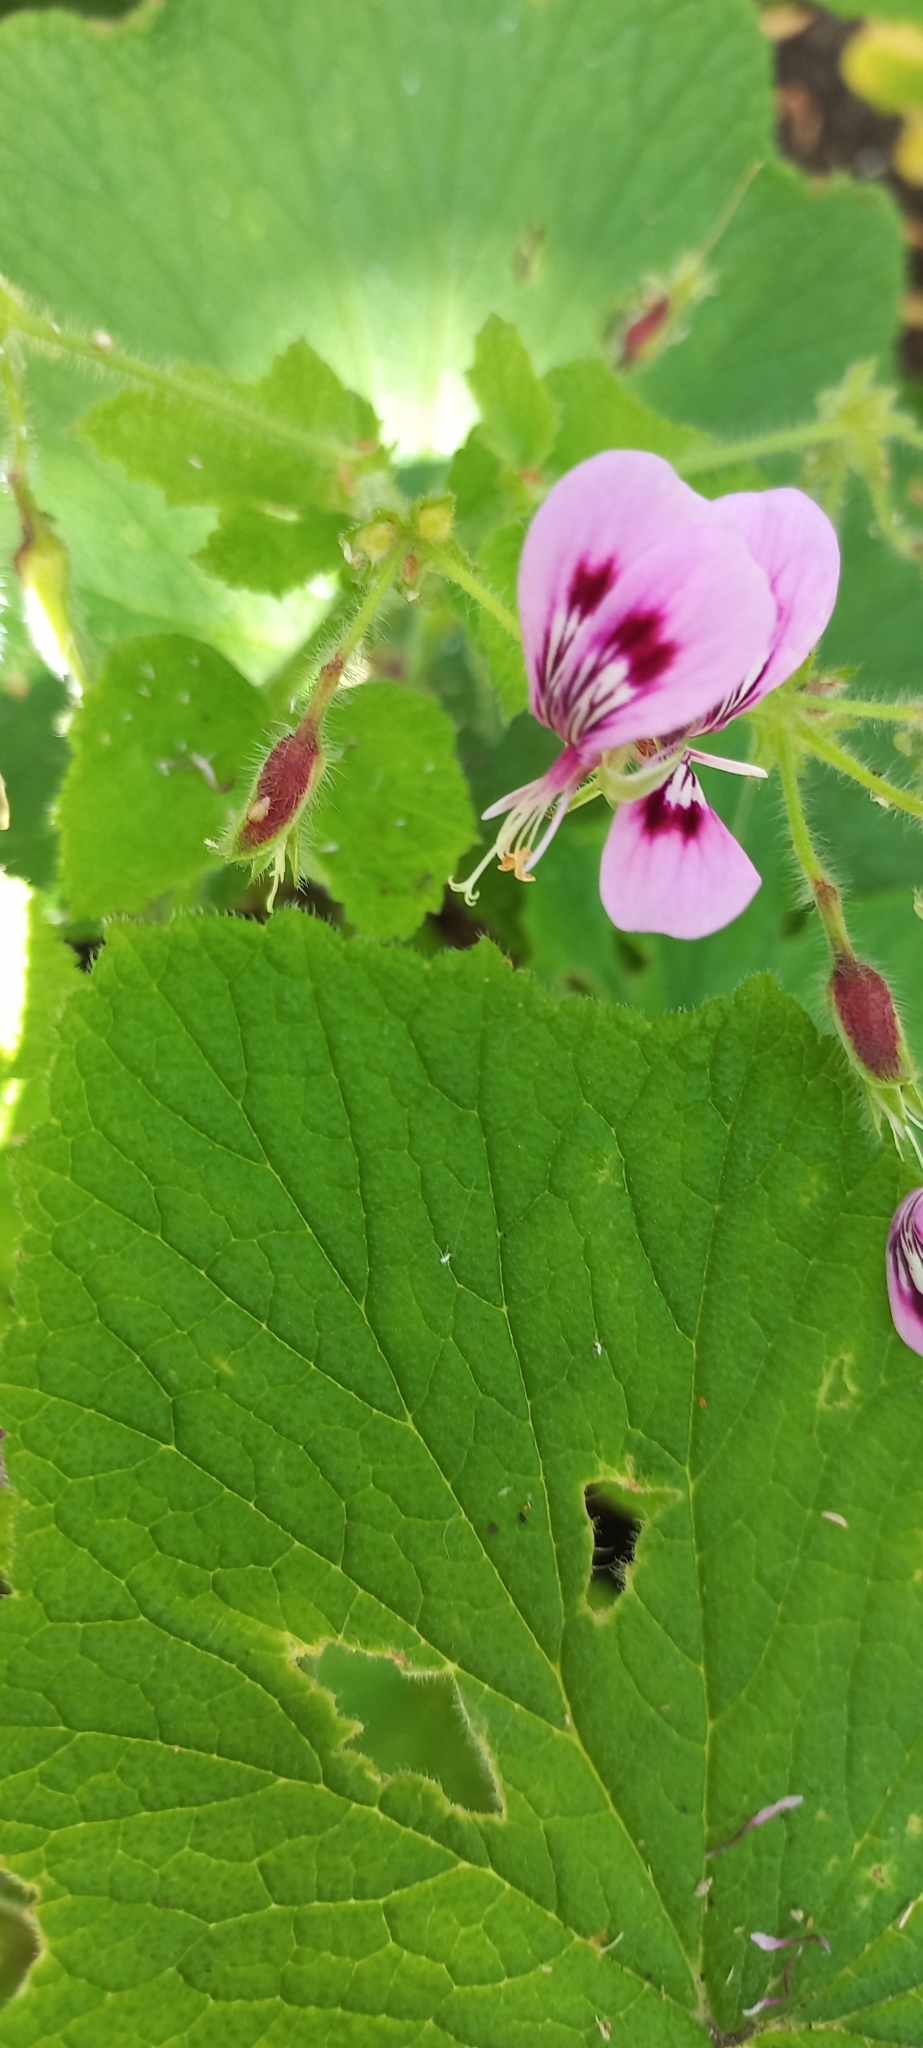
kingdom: Plantae
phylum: Tracheophyta
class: Magnoliopsida
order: Geraniales
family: Geraniaceae
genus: Pelargonium
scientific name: Pelargonium papilionaceum
